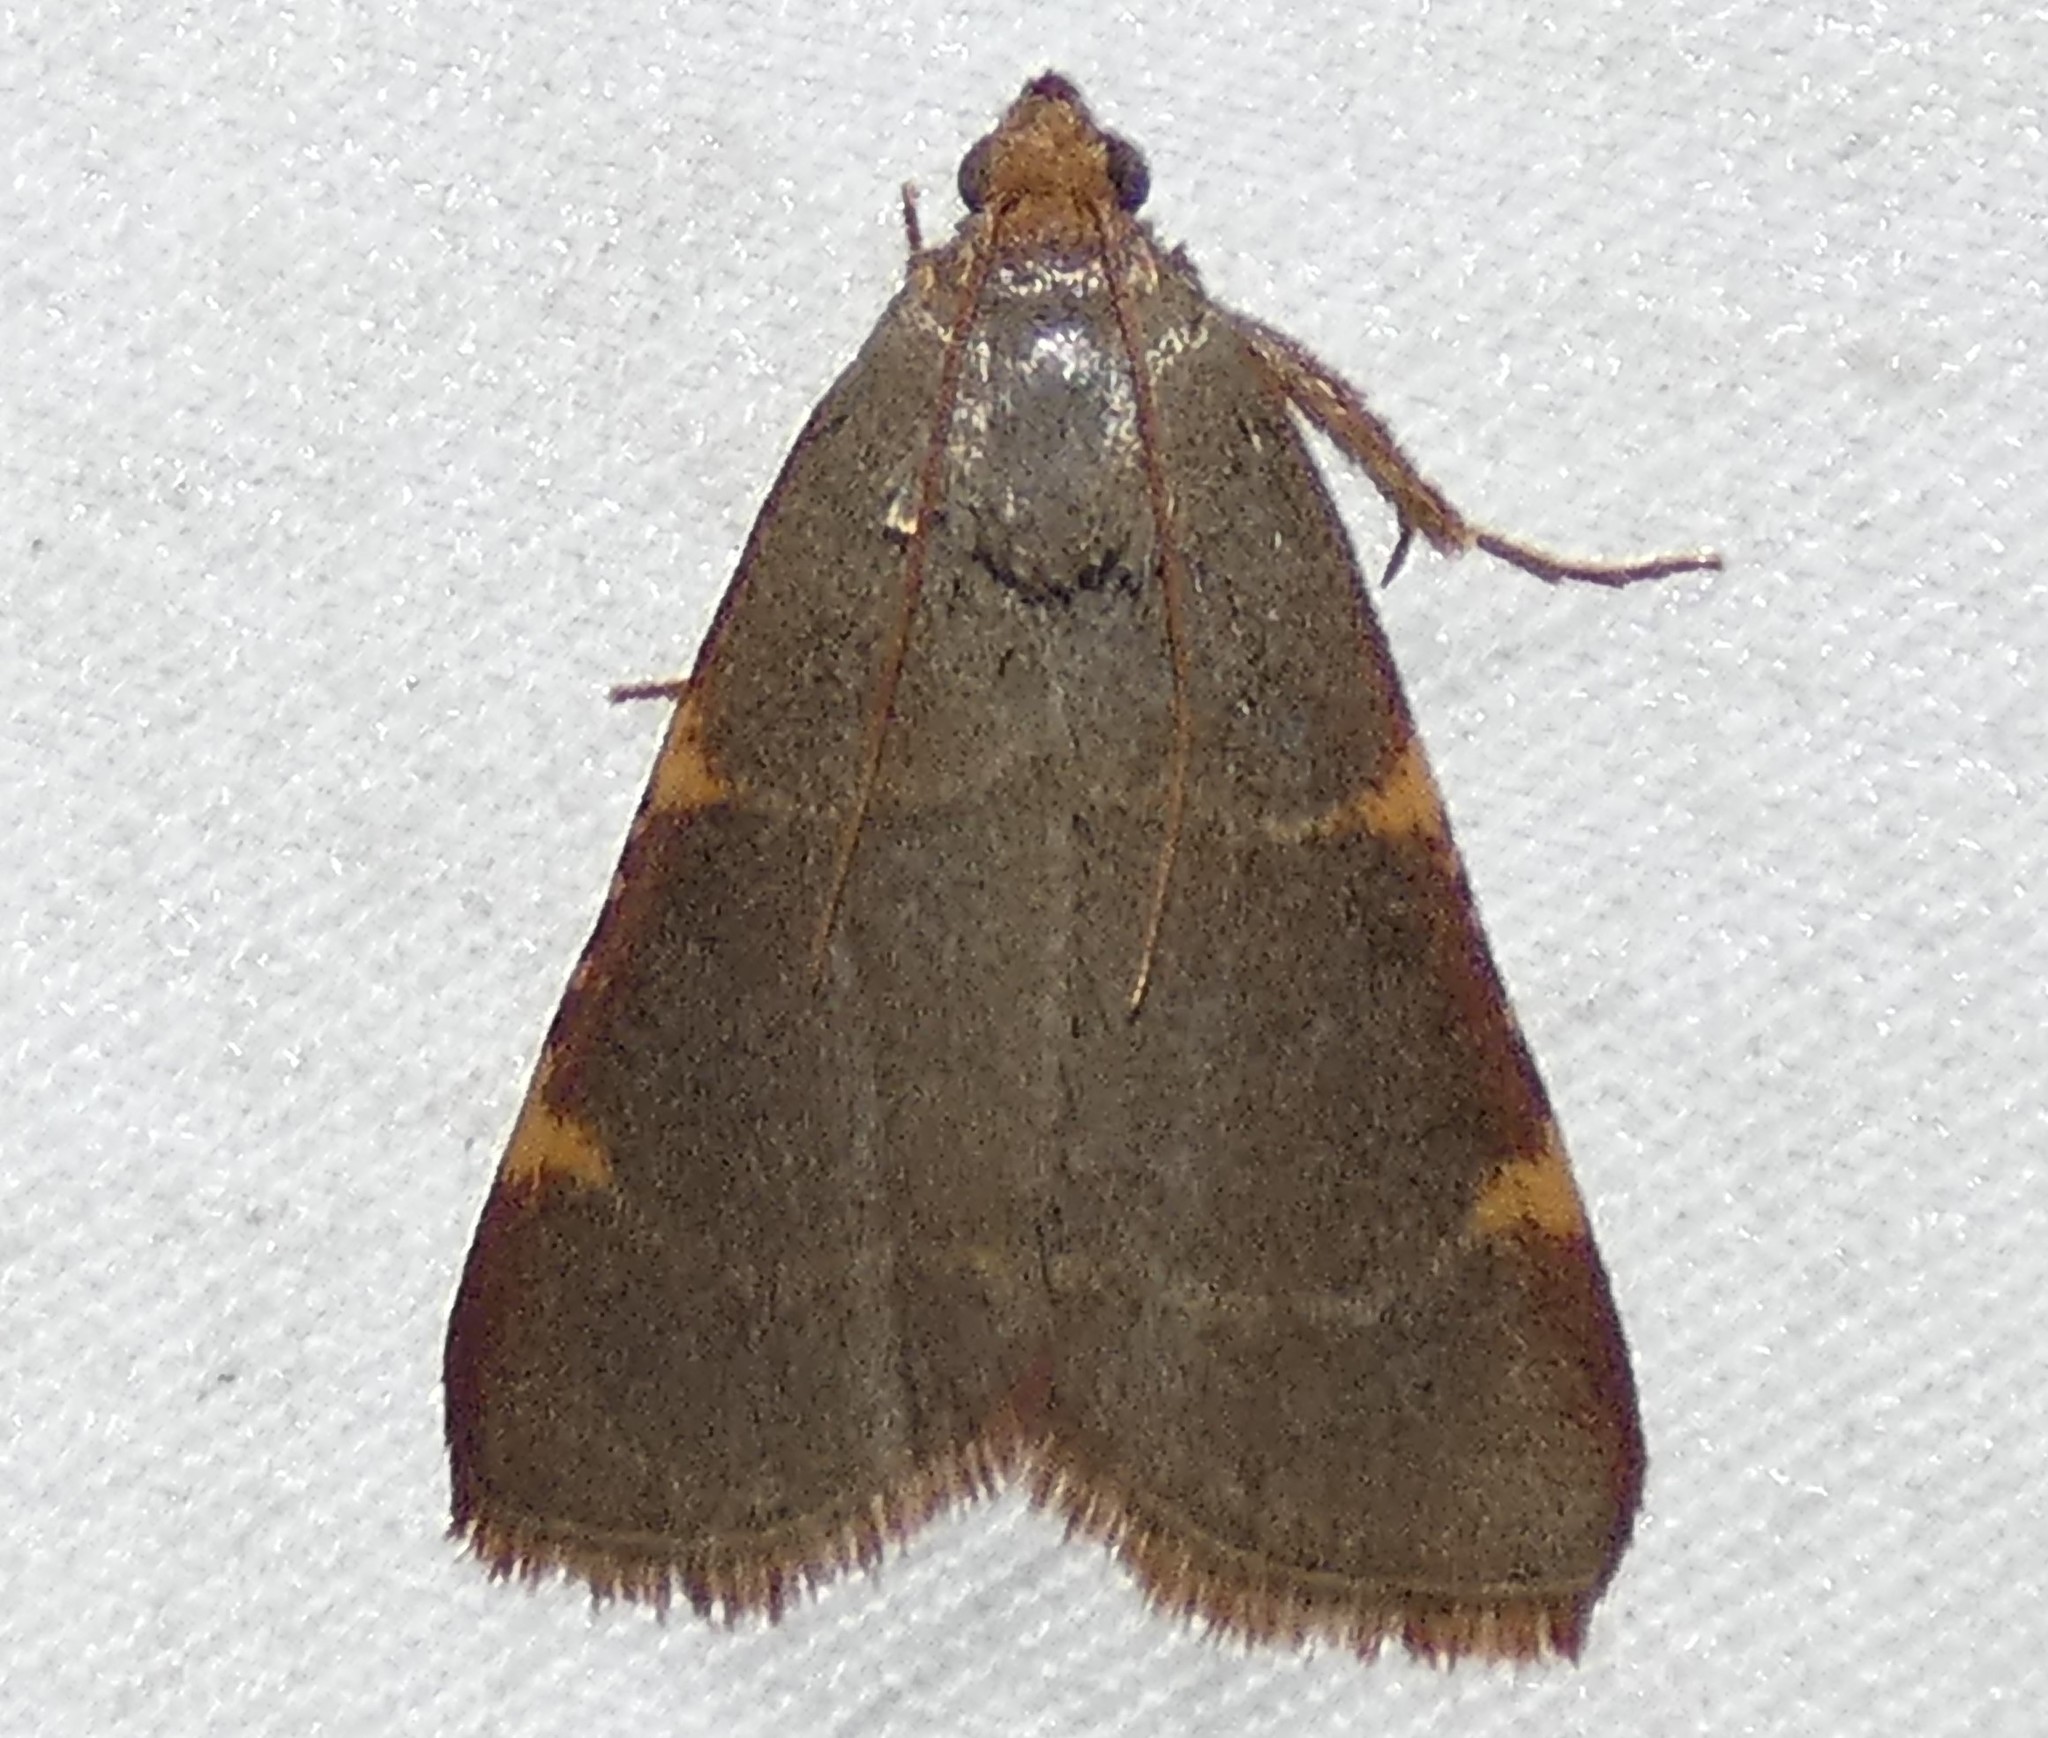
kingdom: Animalia
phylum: Arthropoda
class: Insecta
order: Lepidoptera
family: Pyralidae
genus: Hypsopygia
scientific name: Hypsopygia binodulalis
